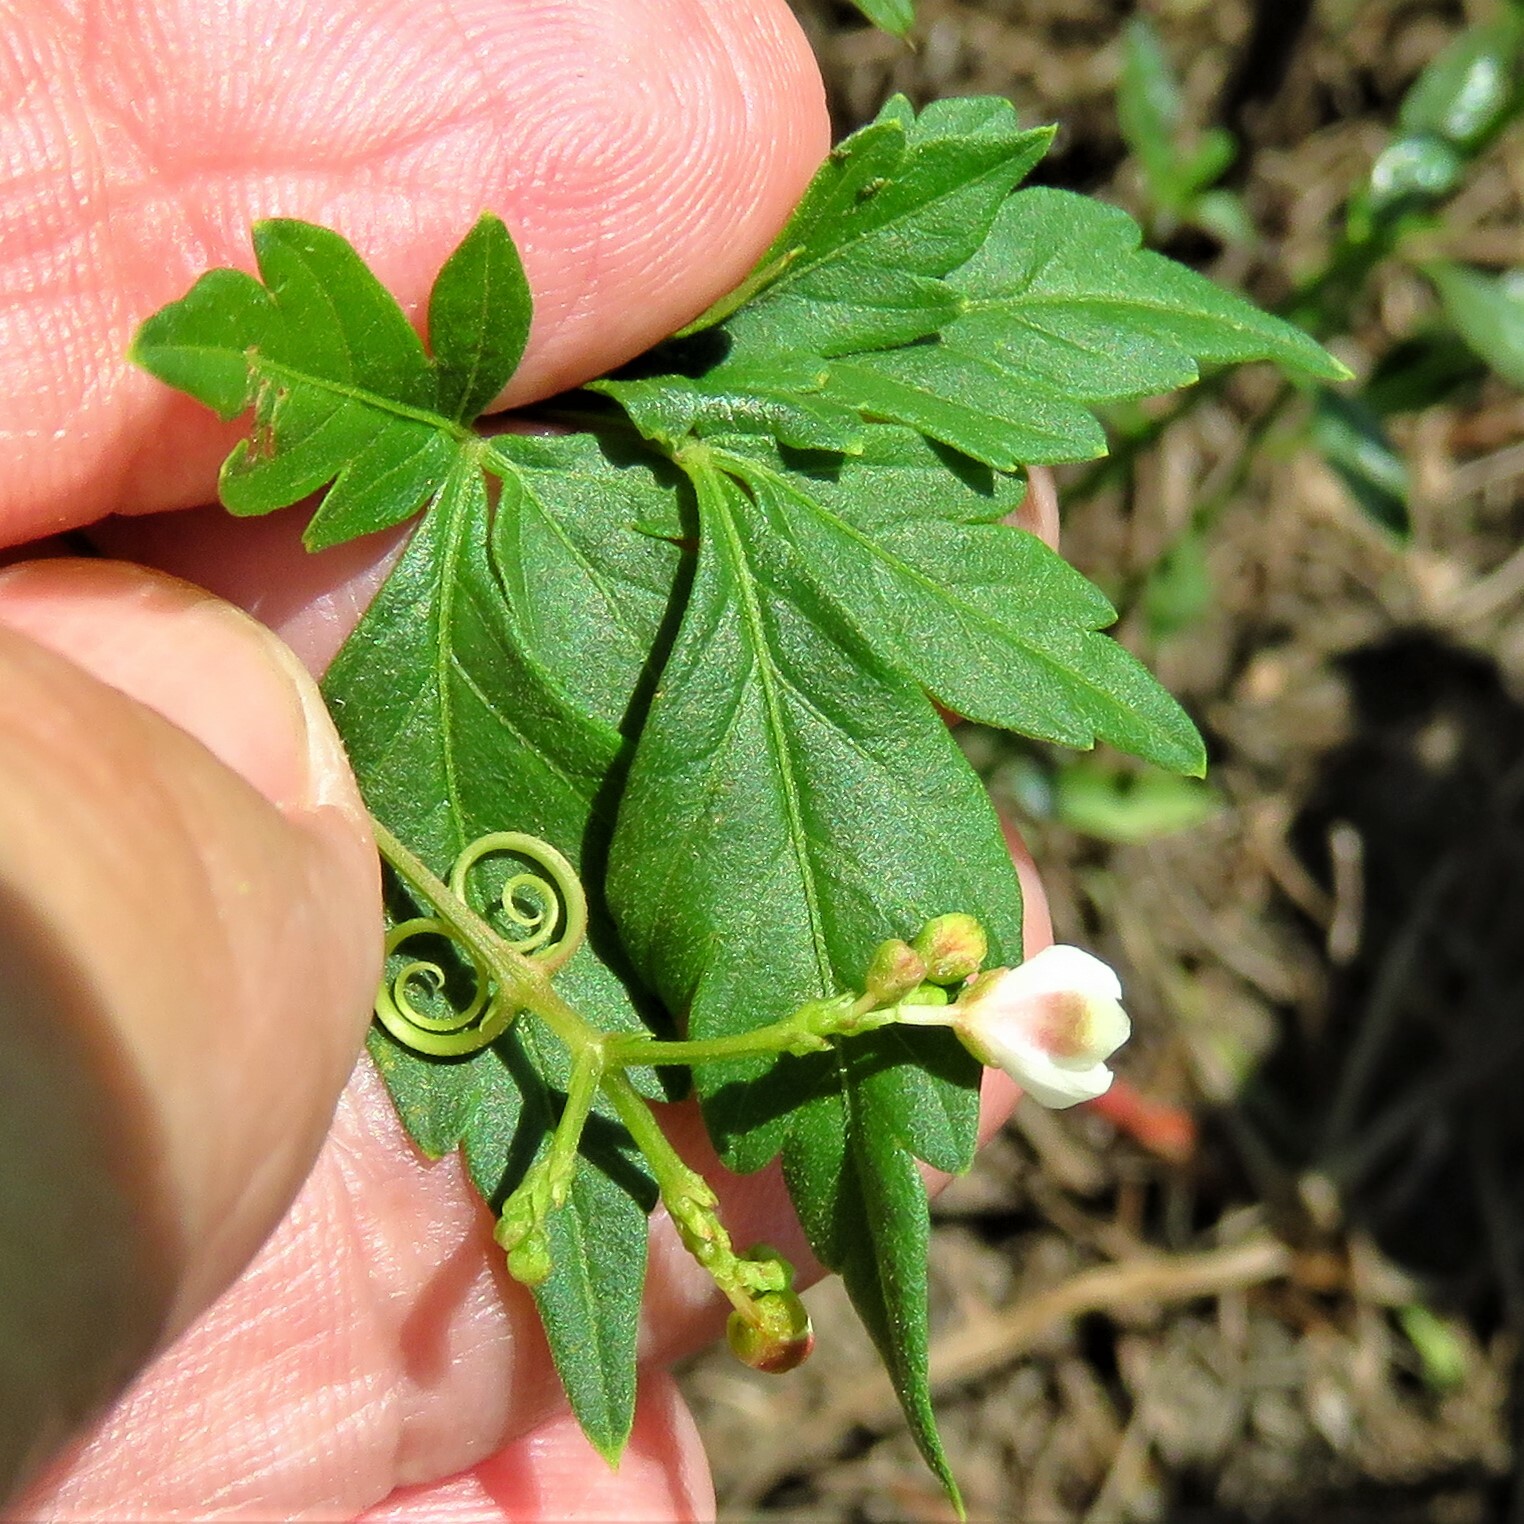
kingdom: Plantae
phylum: Tracheophyta
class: Magnoliopsida
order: Sapindales
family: Sapindaceae
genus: Cardiospermum
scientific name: Cardiospermum halicacabum
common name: Balloon vine
